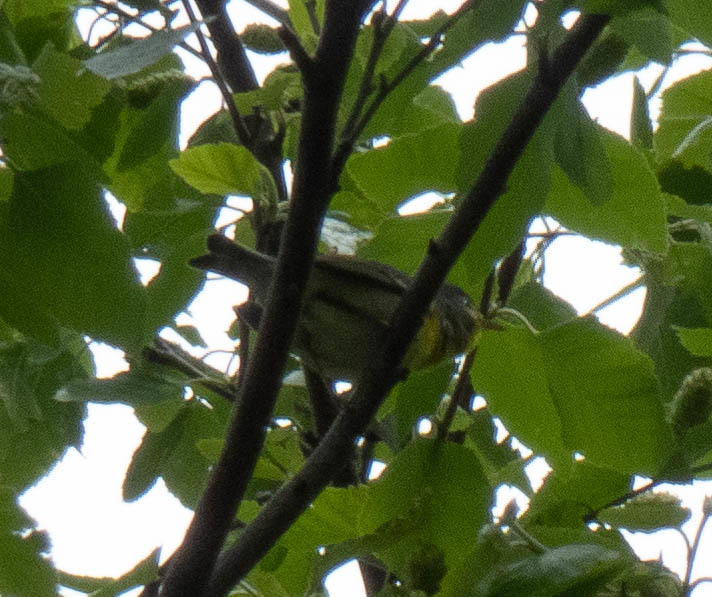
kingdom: Animalia
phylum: Chordata
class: Aves
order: Passeriformes
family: Parulidae
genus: Setophaga
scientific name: Setophaga americana
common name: Northern parula
